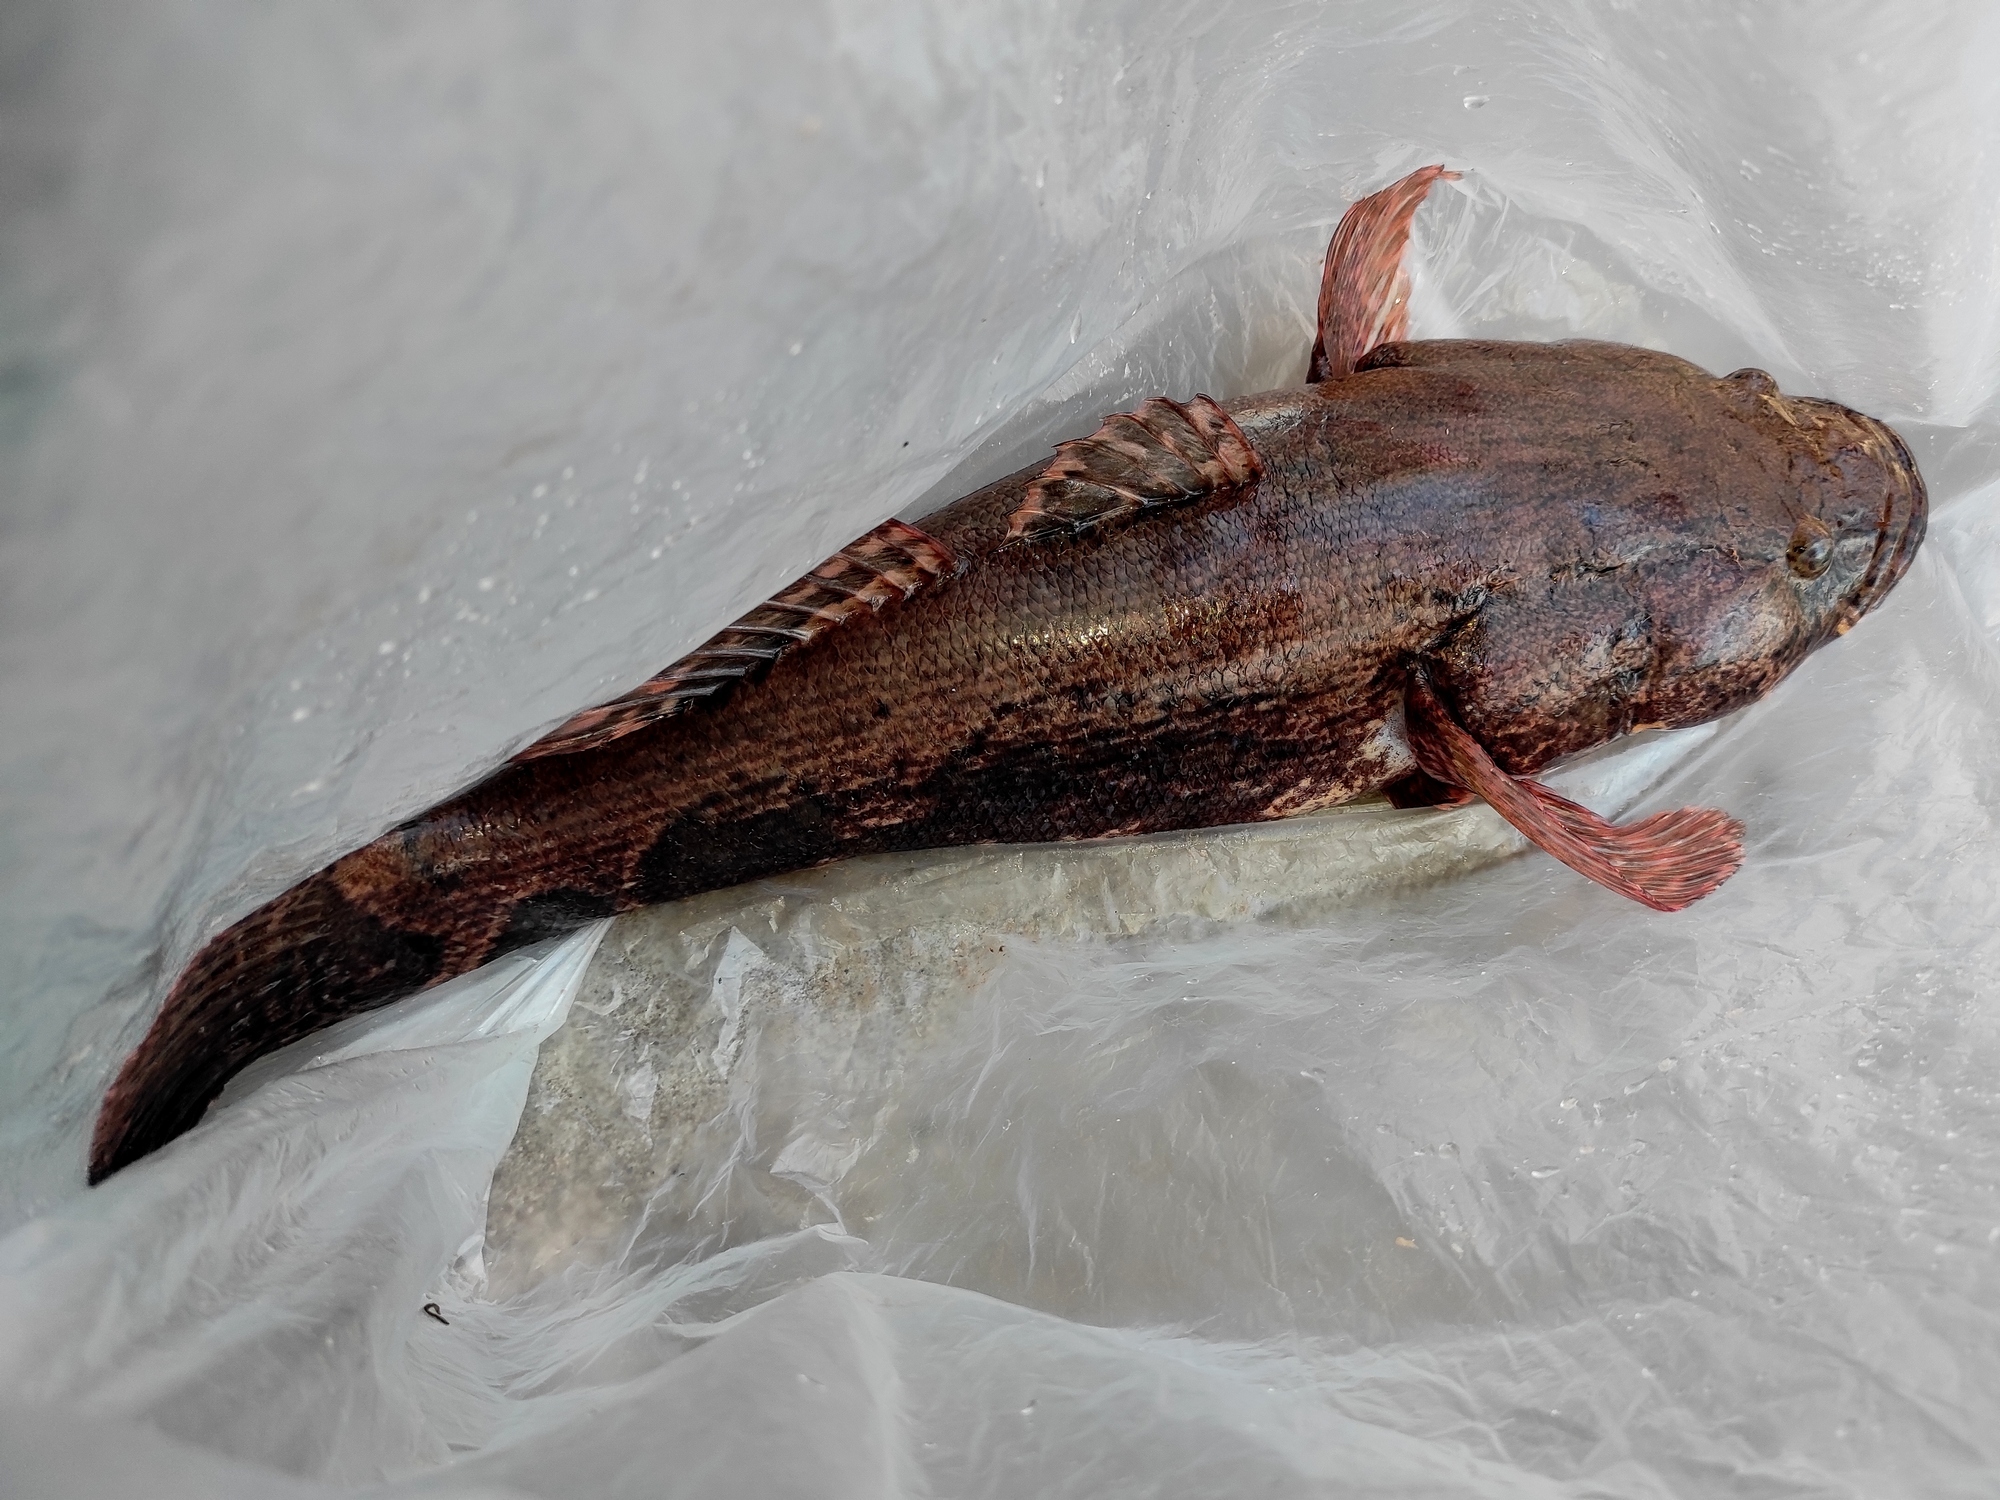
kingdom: Animalia
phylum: Chordata
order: Perciformes
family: Eleotridae
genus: Oxyeleotris
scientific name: Oxyeleotris marmorata
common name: Marble goby
